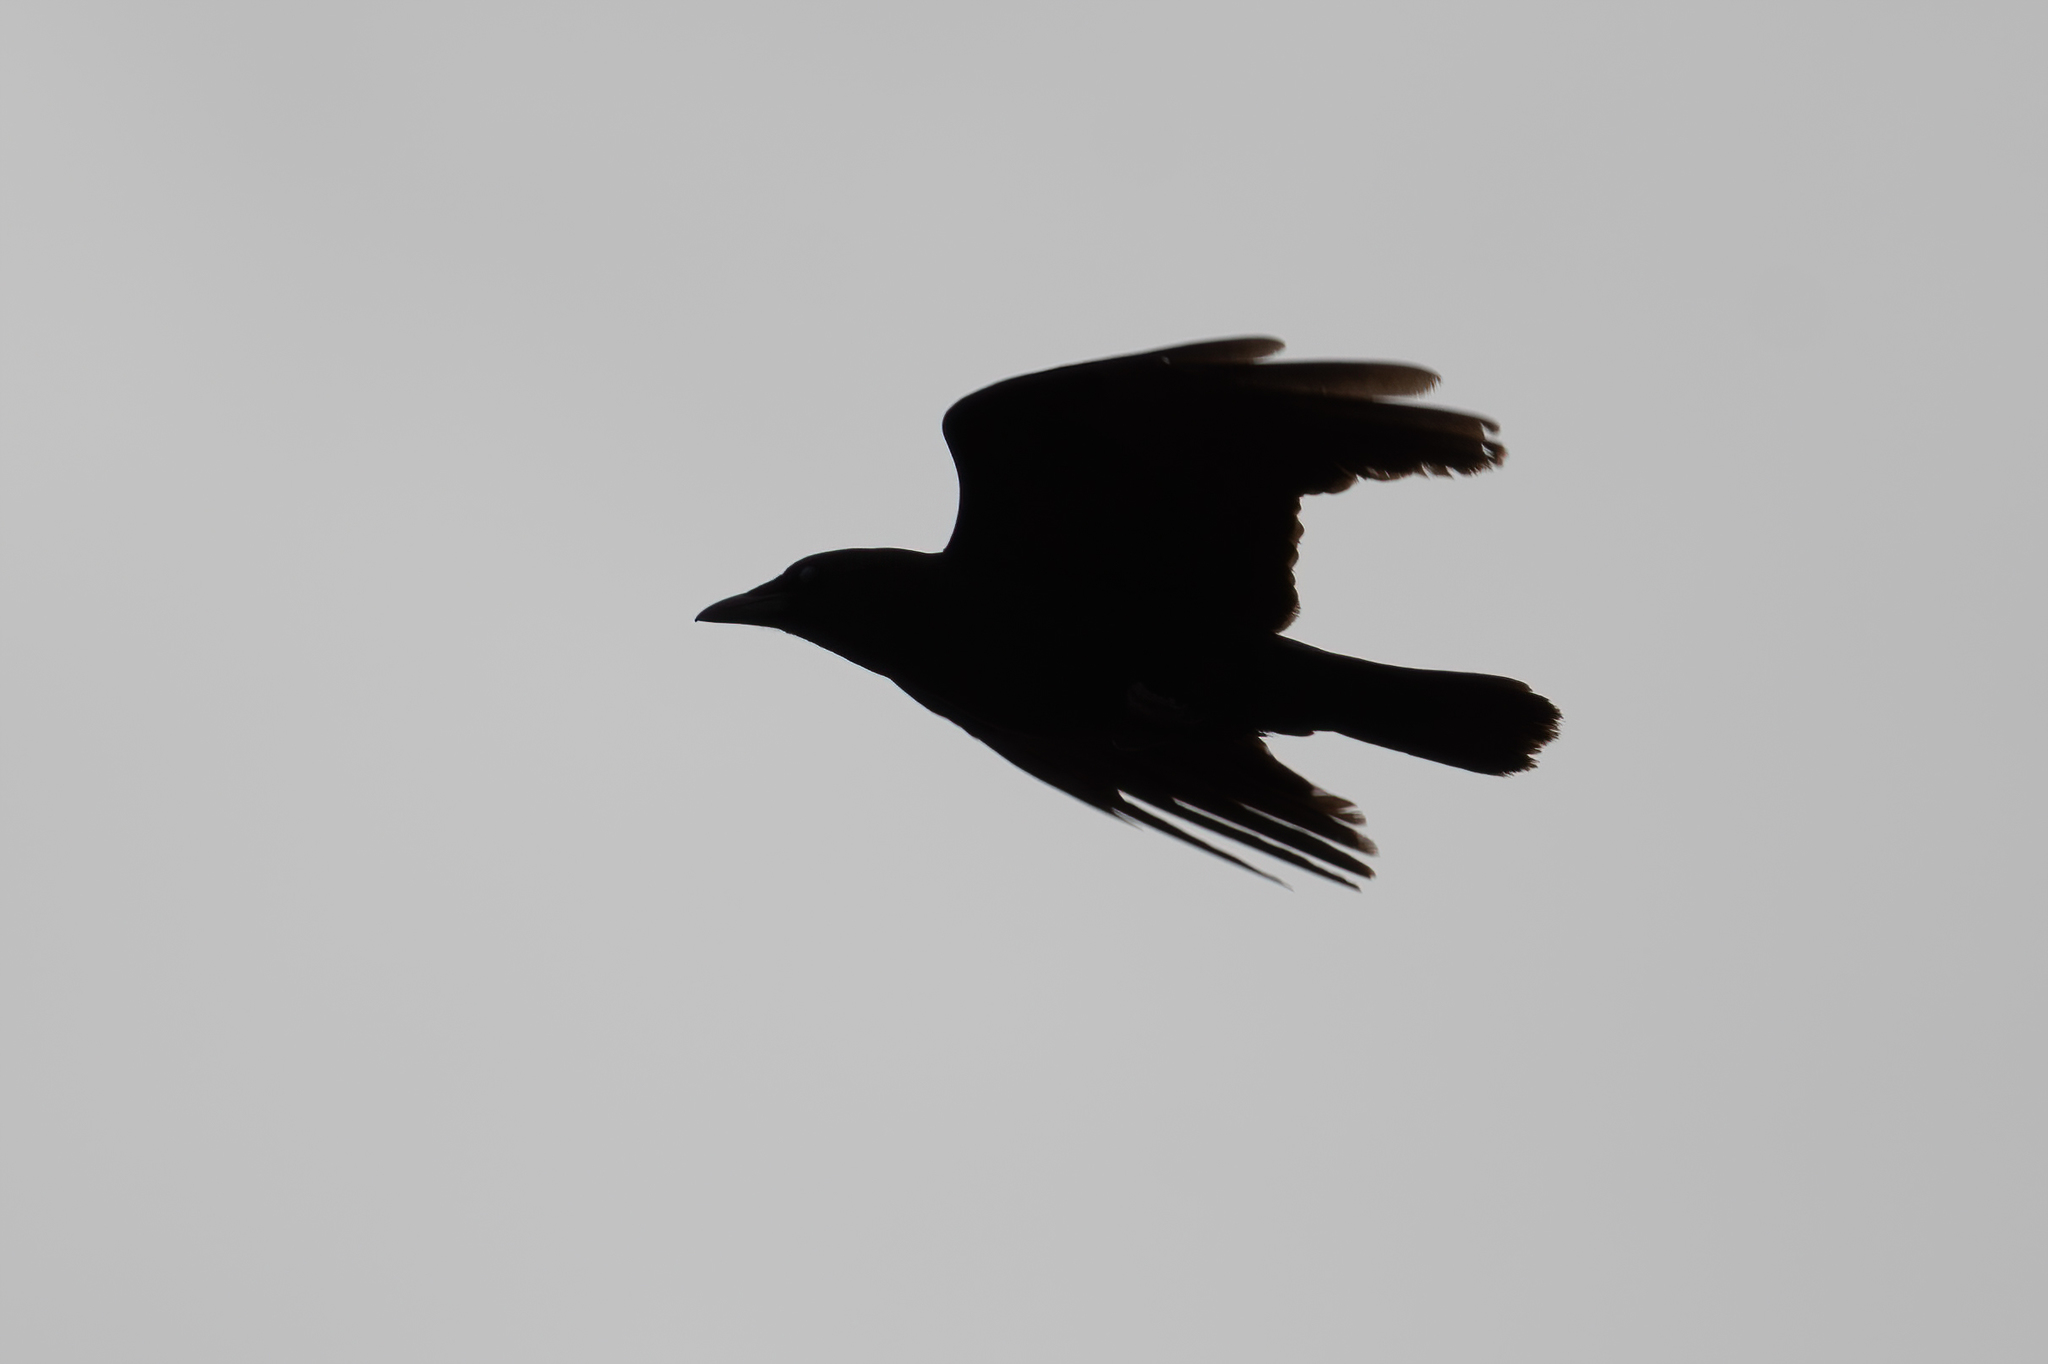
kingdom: Animalia
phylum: Chordata
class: Aves
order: Passeriformes
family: Corvidae
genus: Corvus
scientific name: Corvus brachyrhynchos
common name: American crow
